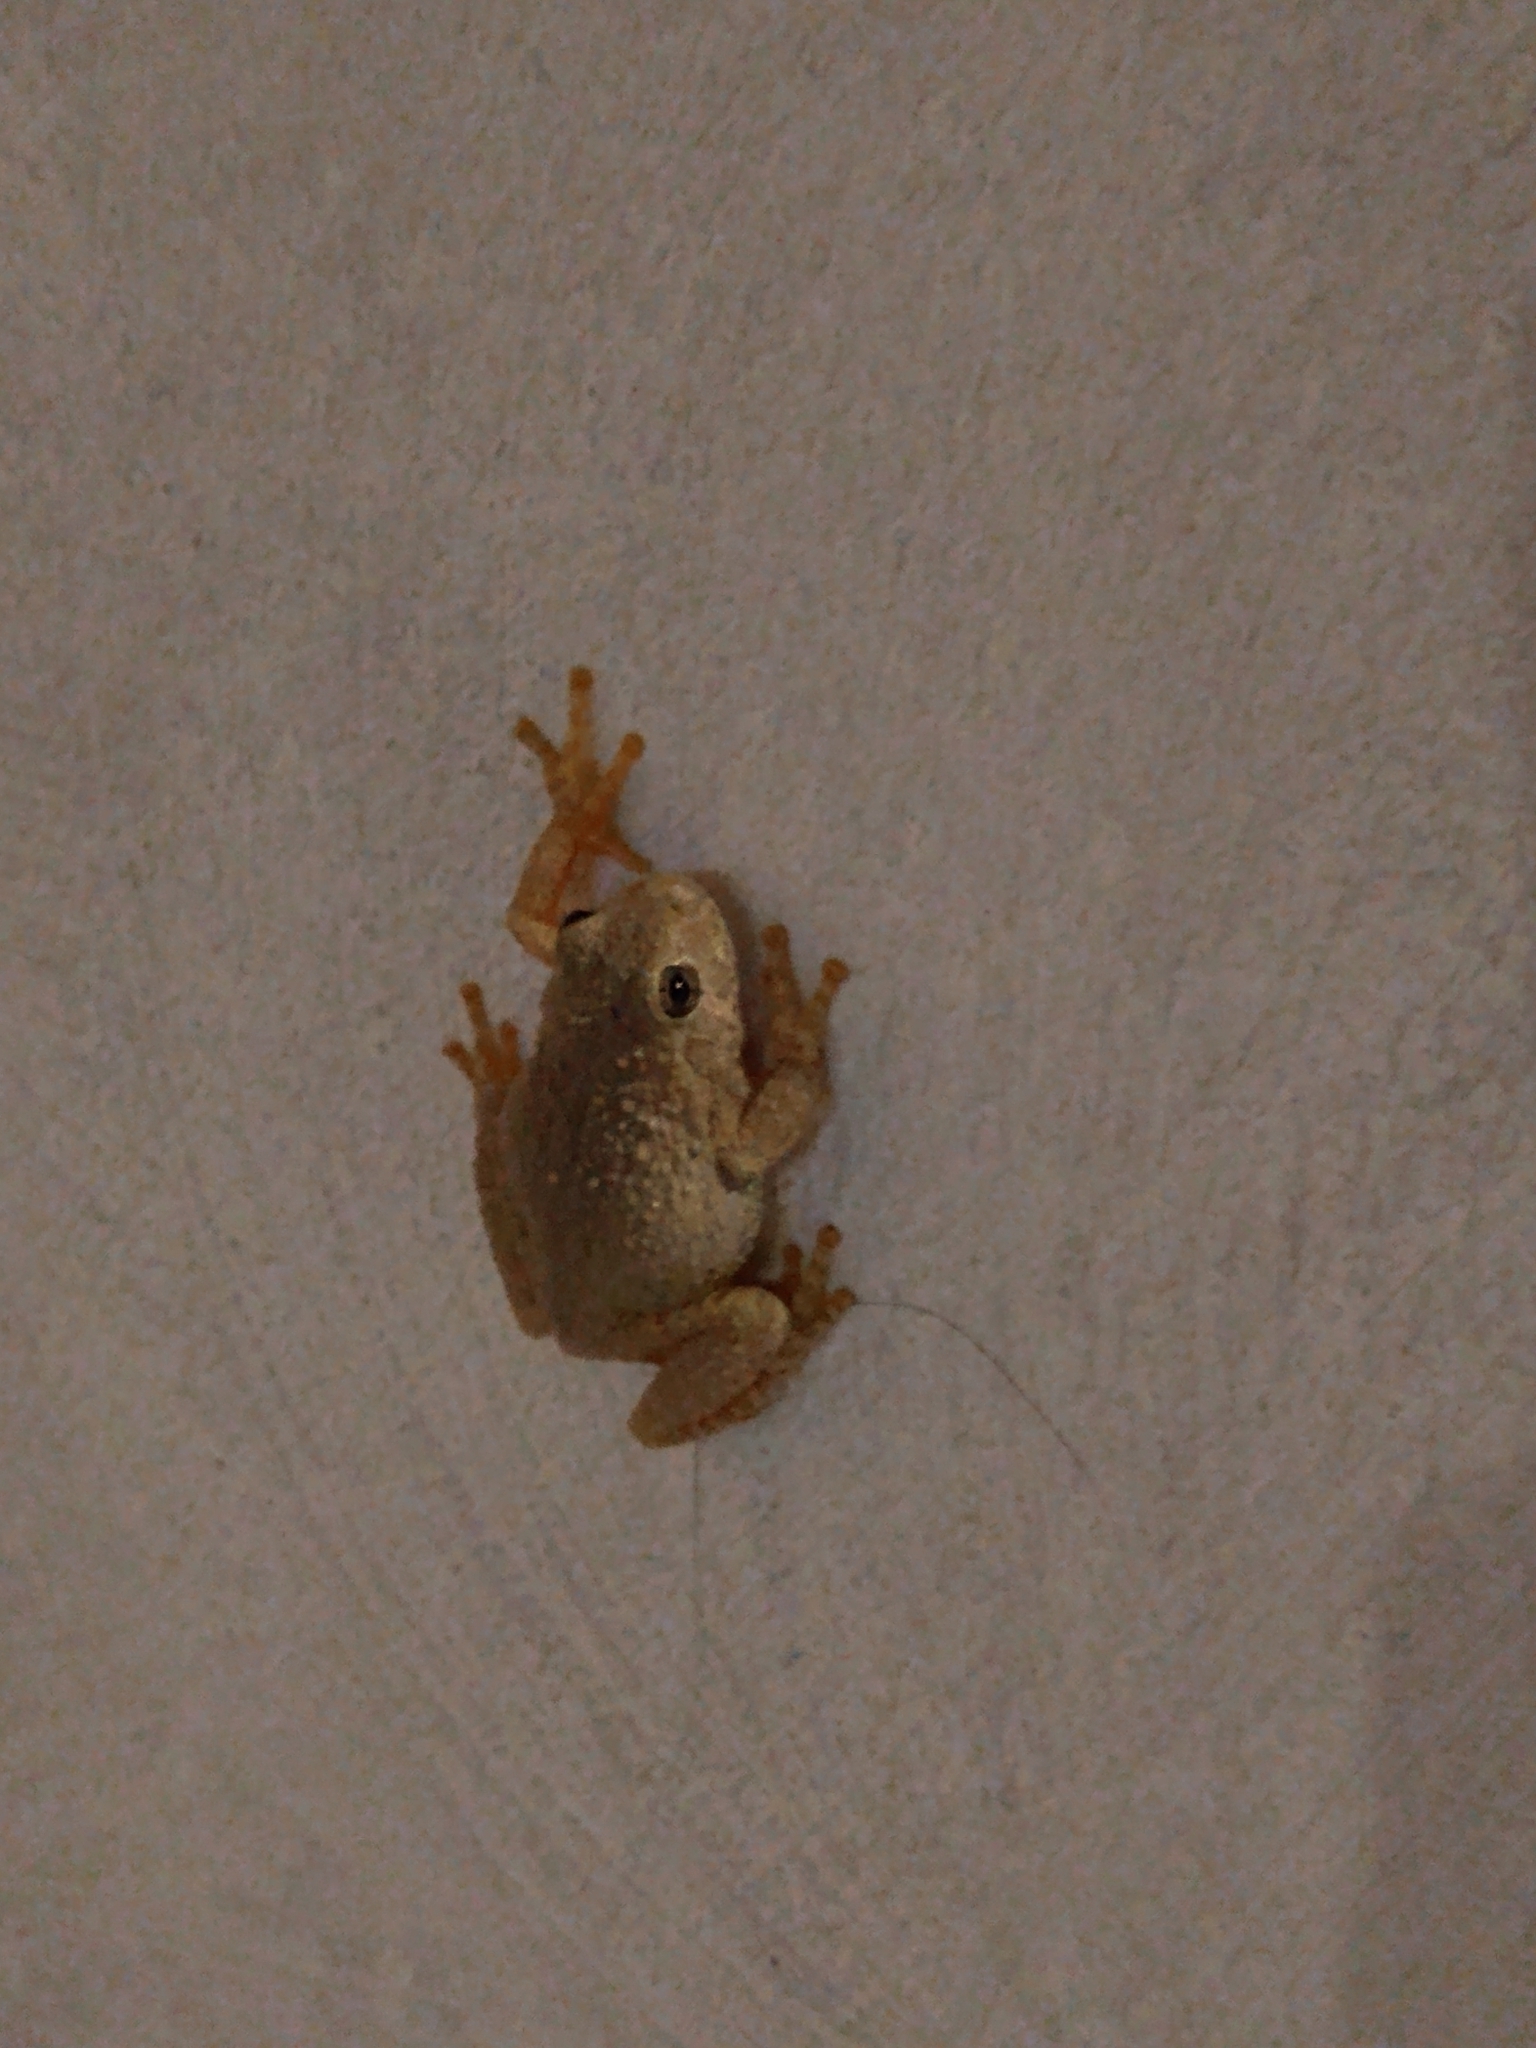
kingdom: Animalia
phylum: Chordata
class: Amphibia
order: Anura
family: Hylidae
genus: Dryophytes
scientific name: Dryophytes arenicolor
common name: Canyon treefrog
